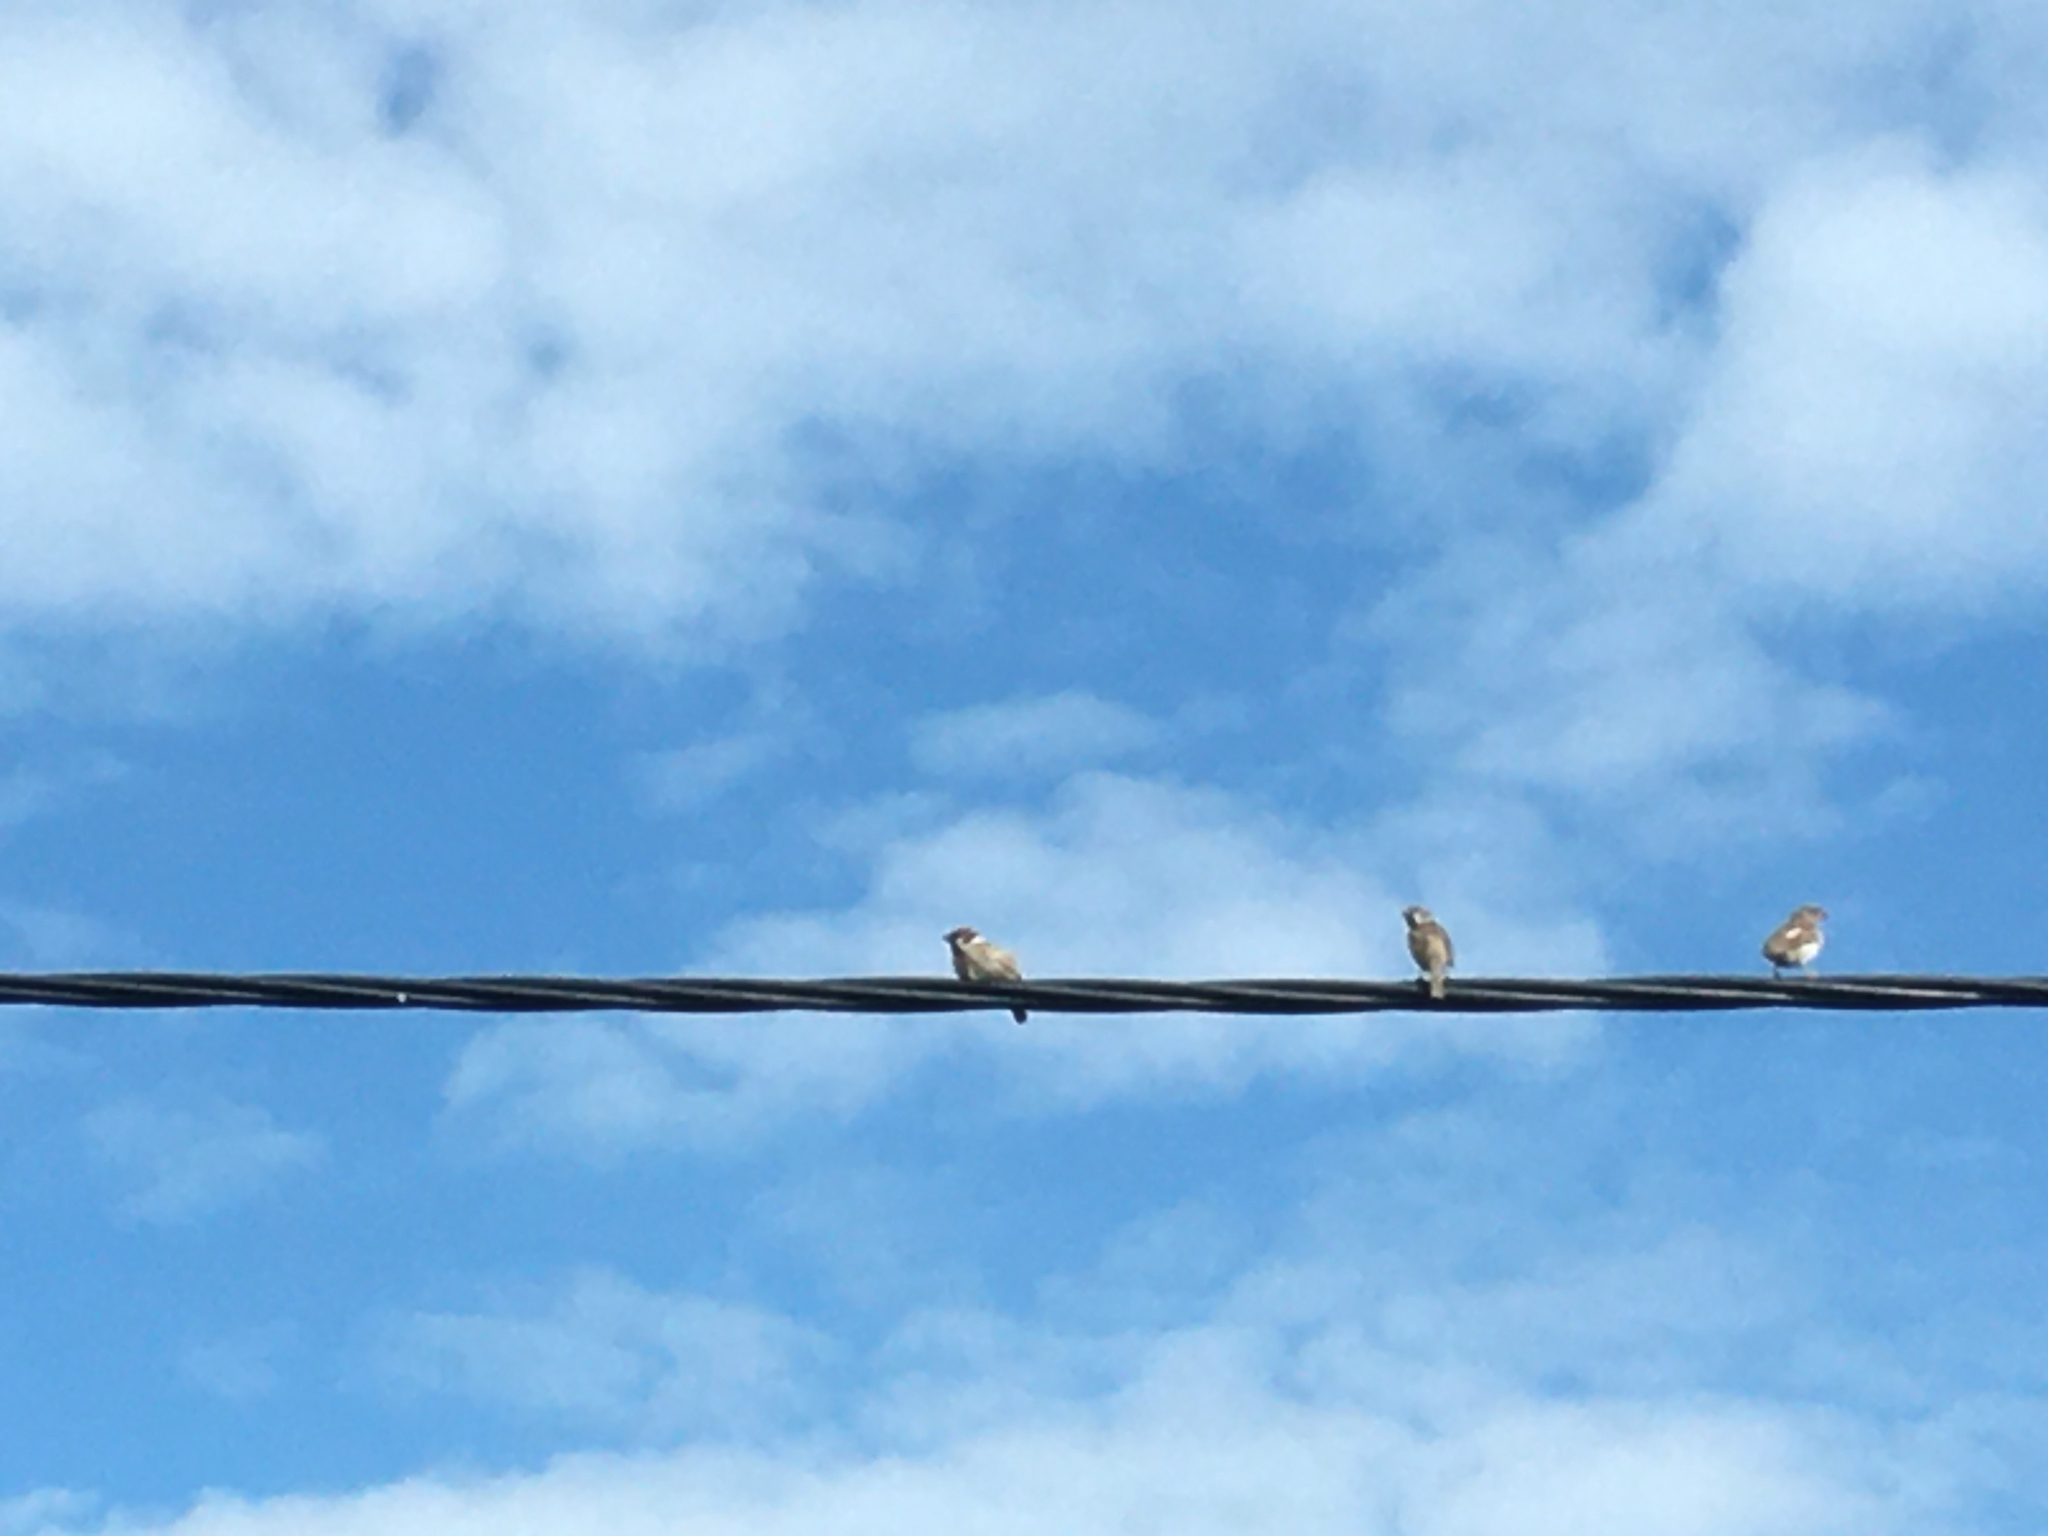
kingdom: Animalia
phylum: Chordata
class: Aves
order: Passeriformes
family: Passeridae
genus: Passer
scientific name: Passer domesticus
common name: House sparrow
